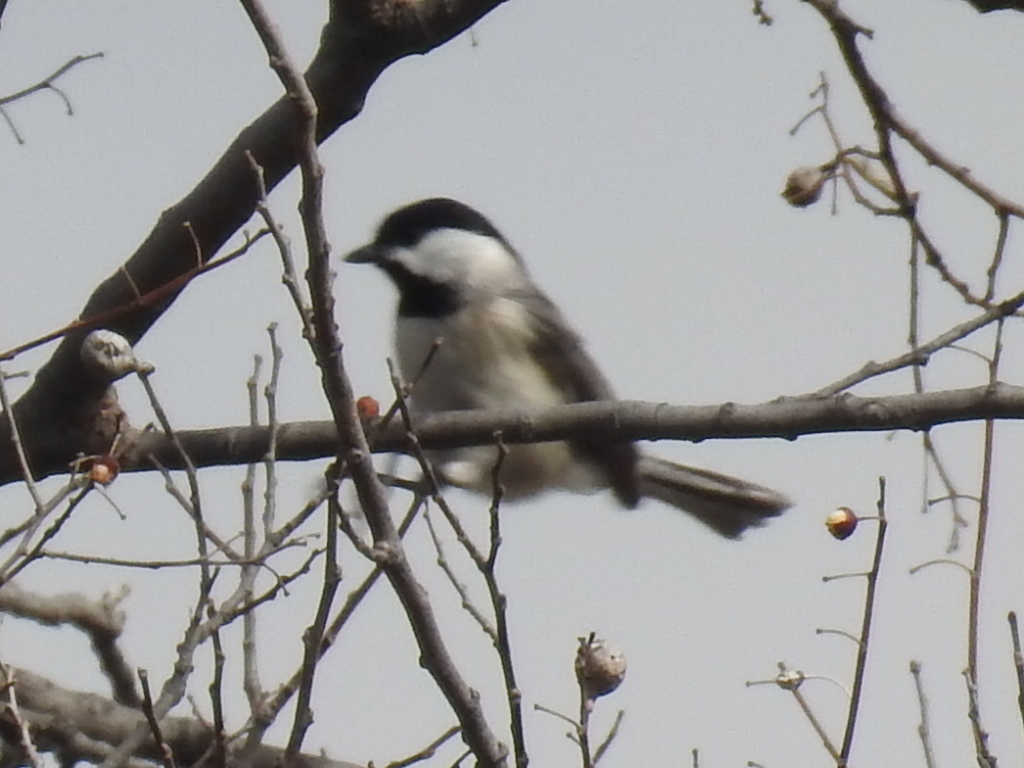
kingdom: Animalia
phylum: Chordata
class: Aves
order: Passeriformes
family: Paridae
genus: Poecile
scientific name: Poecile carolinensis
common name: Carolina chickadee
